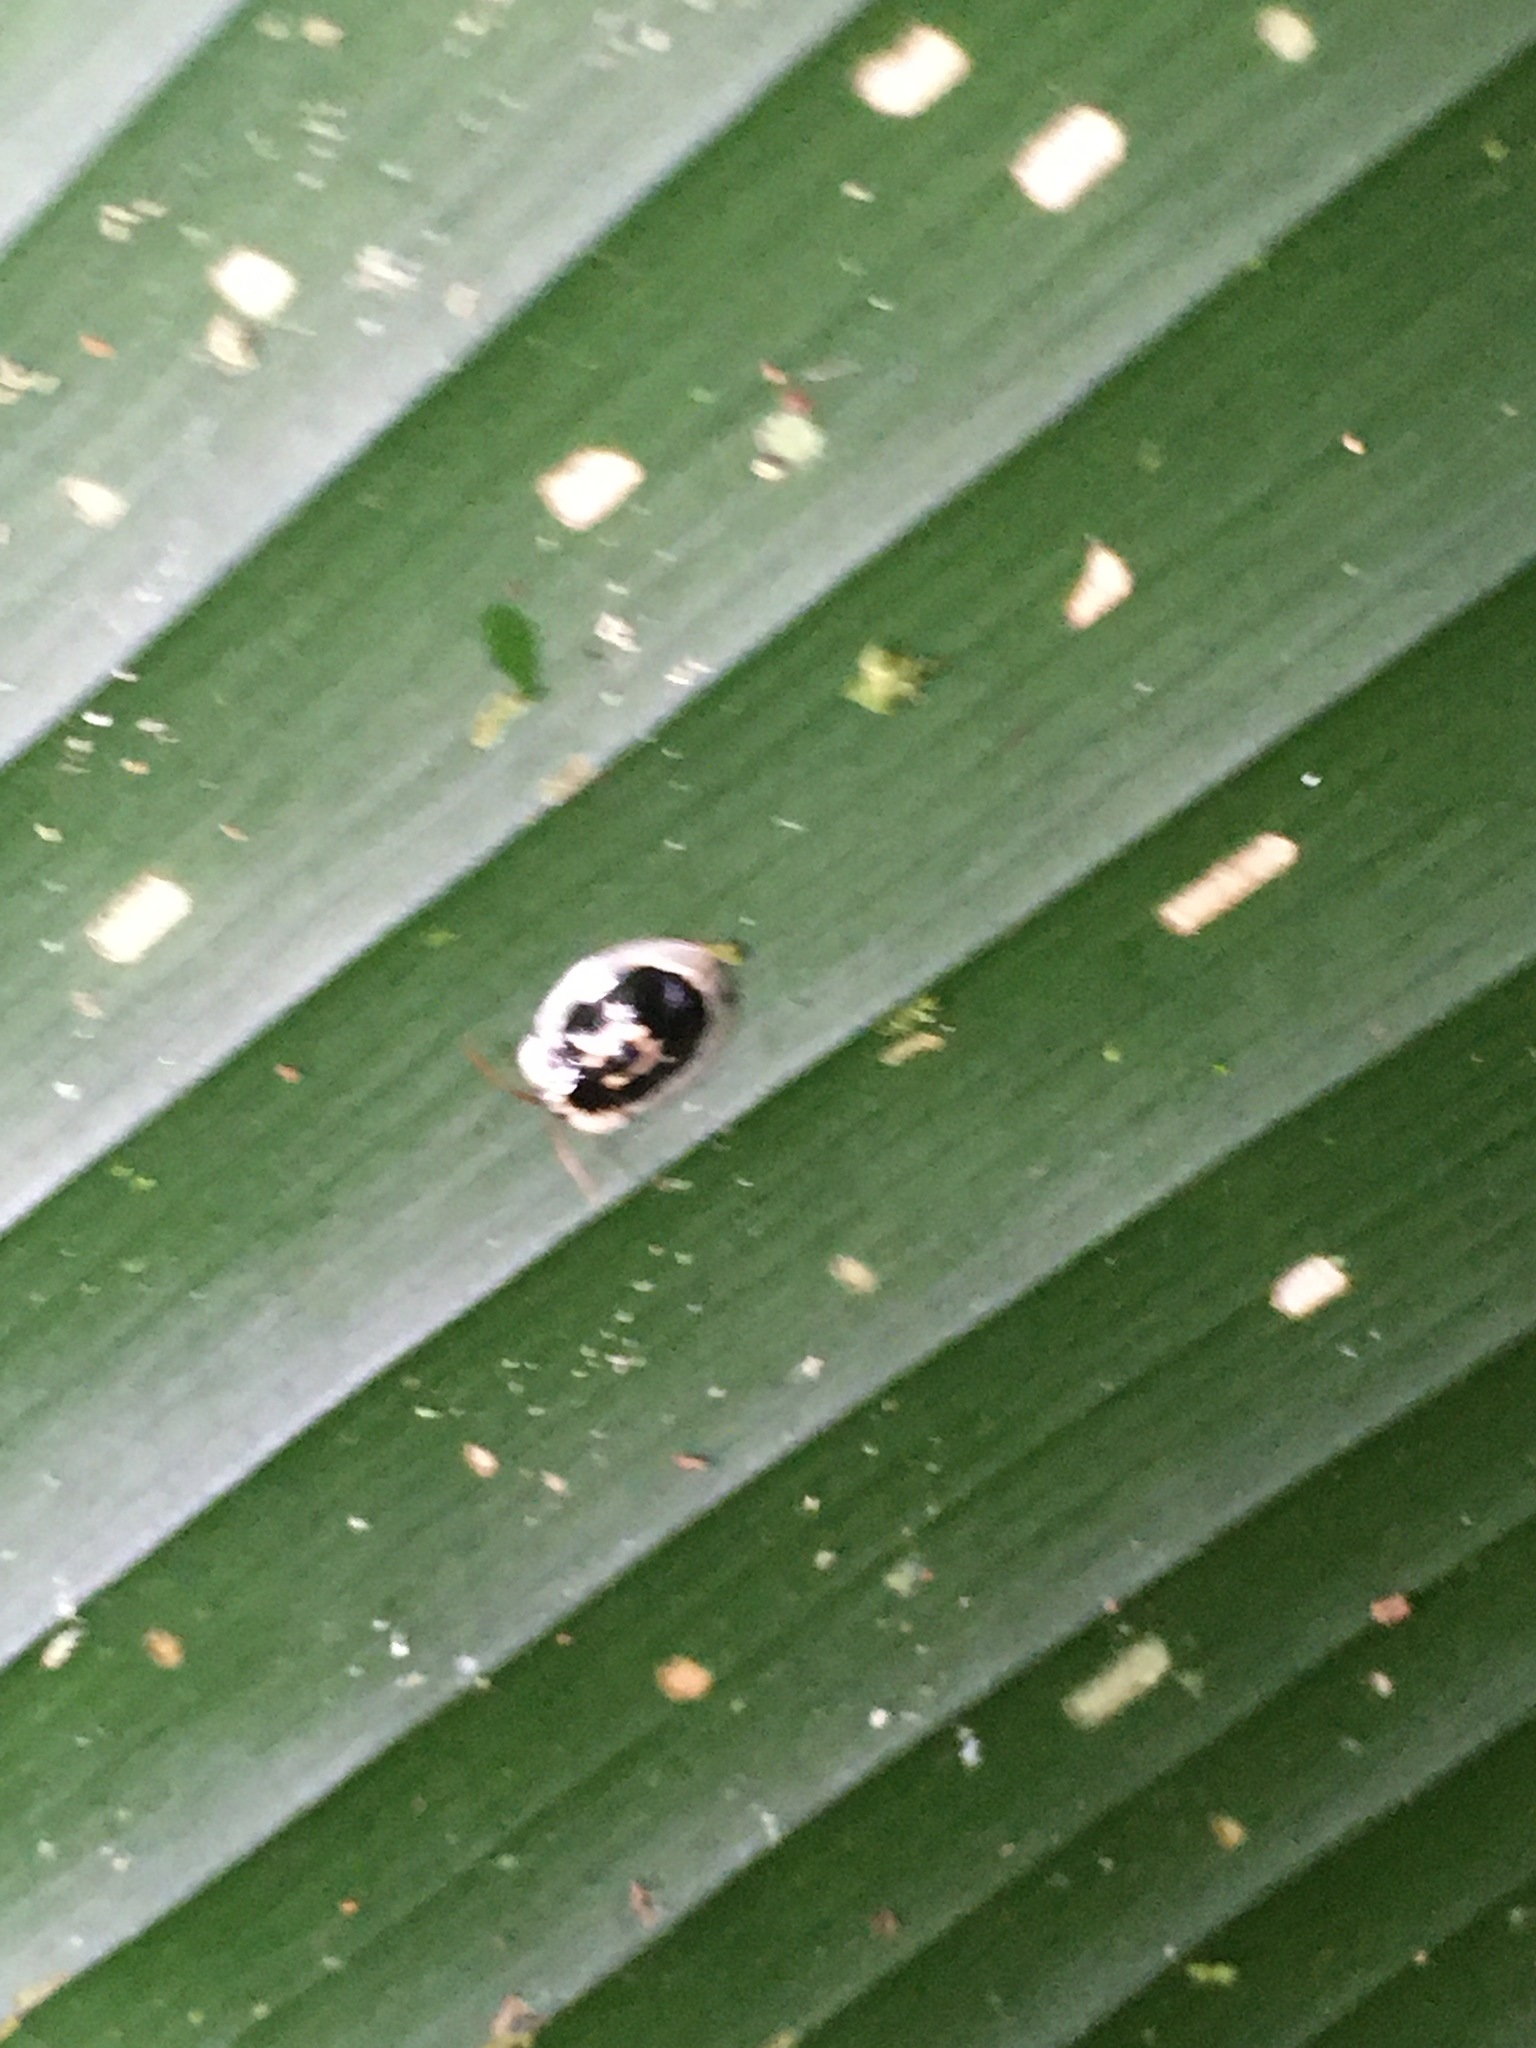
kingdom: Animalia
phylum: Arthropoda
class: Insecta
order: Coleoptera
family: Chrysomelidae
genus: Aslamidium
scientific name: Aslamidium semicirculare
